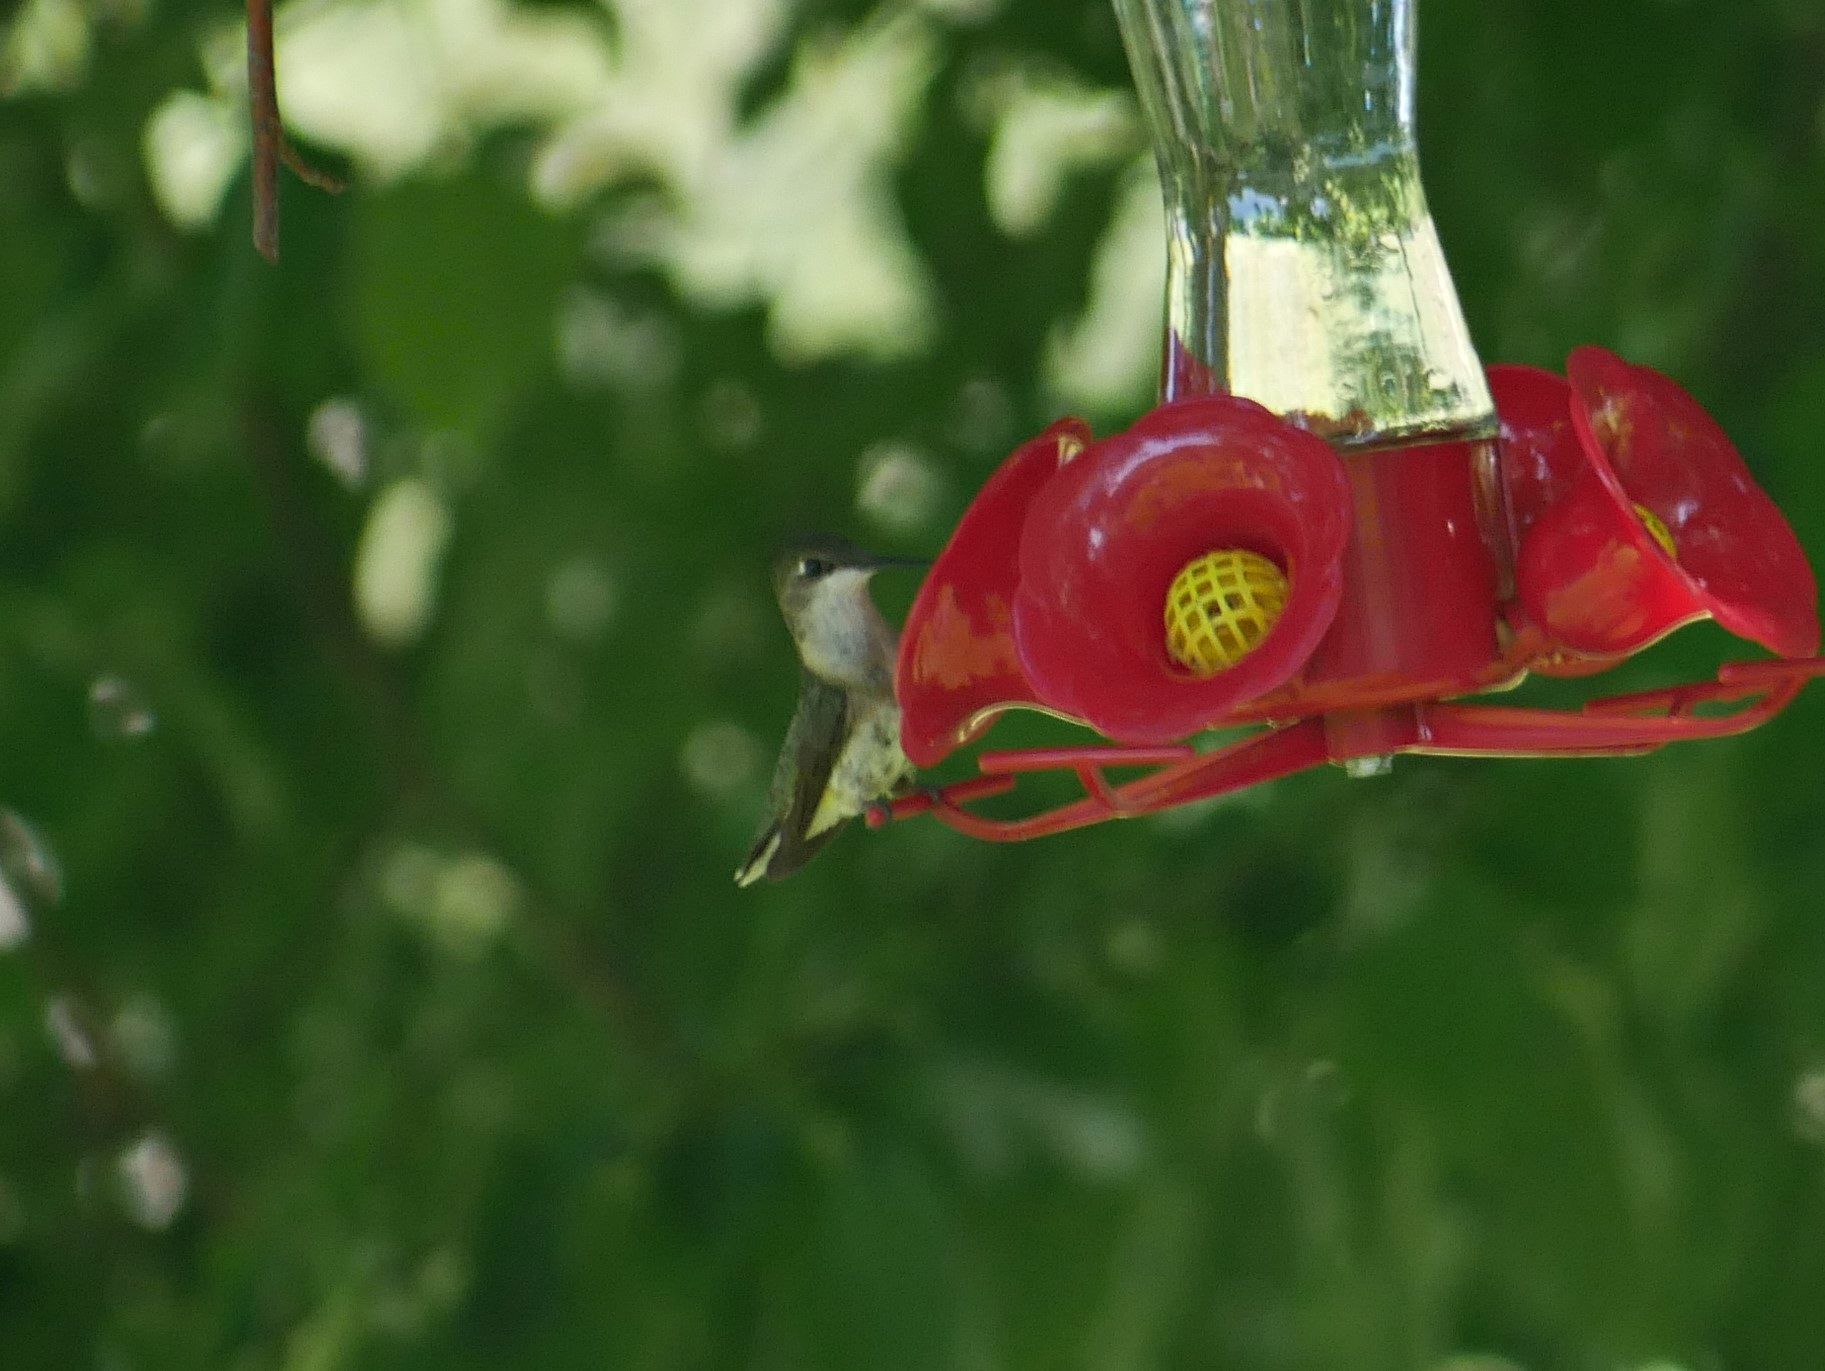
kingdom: Animalia
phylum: Chordata
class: Aves
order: Apodiformes
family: Trochilidae
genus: Archilochus
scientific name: Archilochus colubris
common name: Ruby-throated hummingbird
